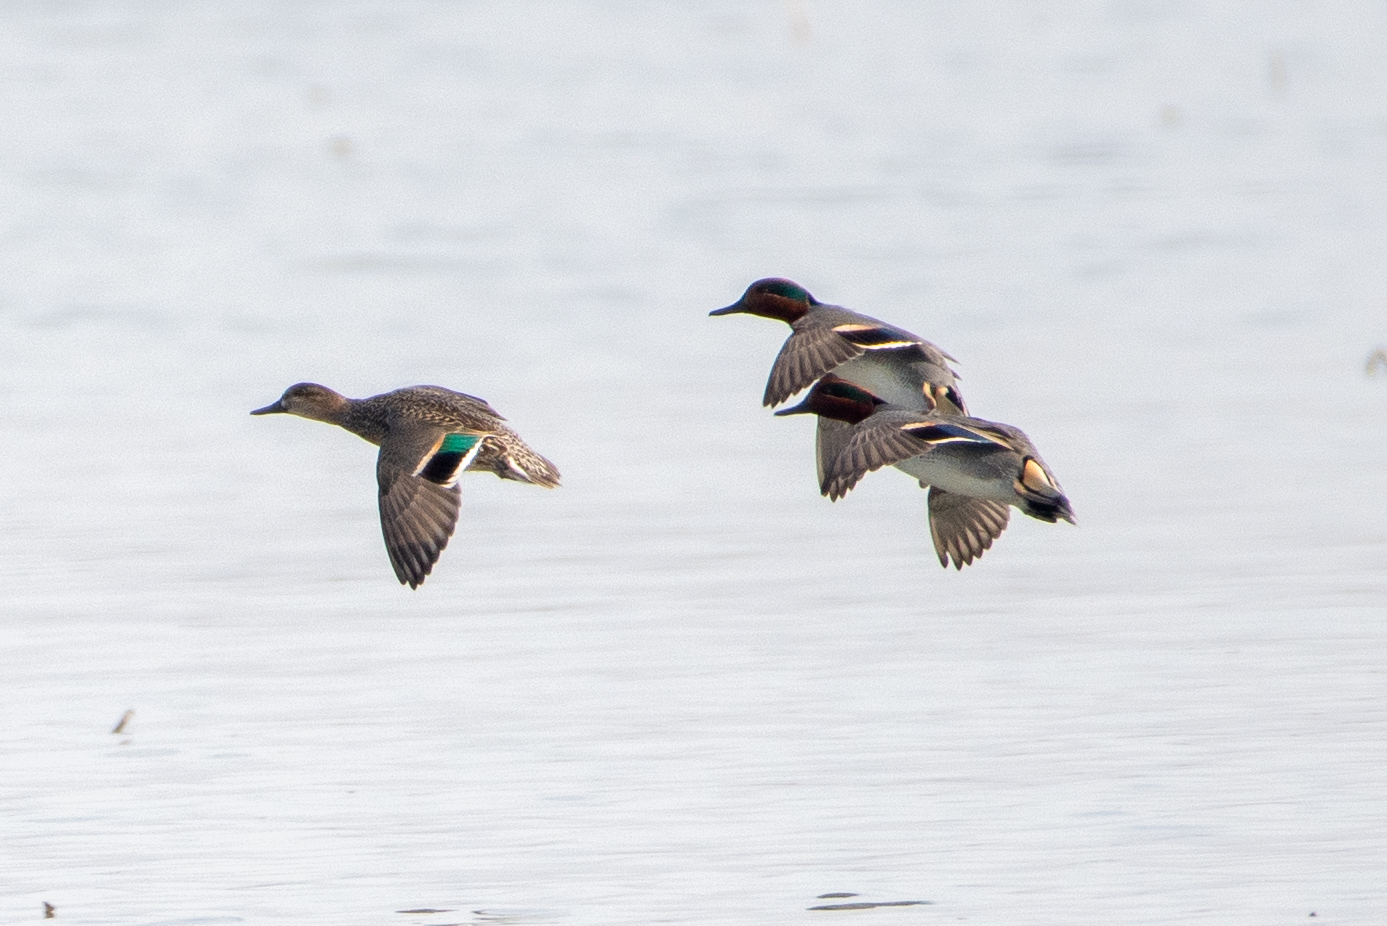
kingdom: Animalia
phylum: Chordata
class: Aves
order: Anseriformes
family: Anatidae
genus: Anas
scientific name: Anas crecca
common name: Eurasian teal
